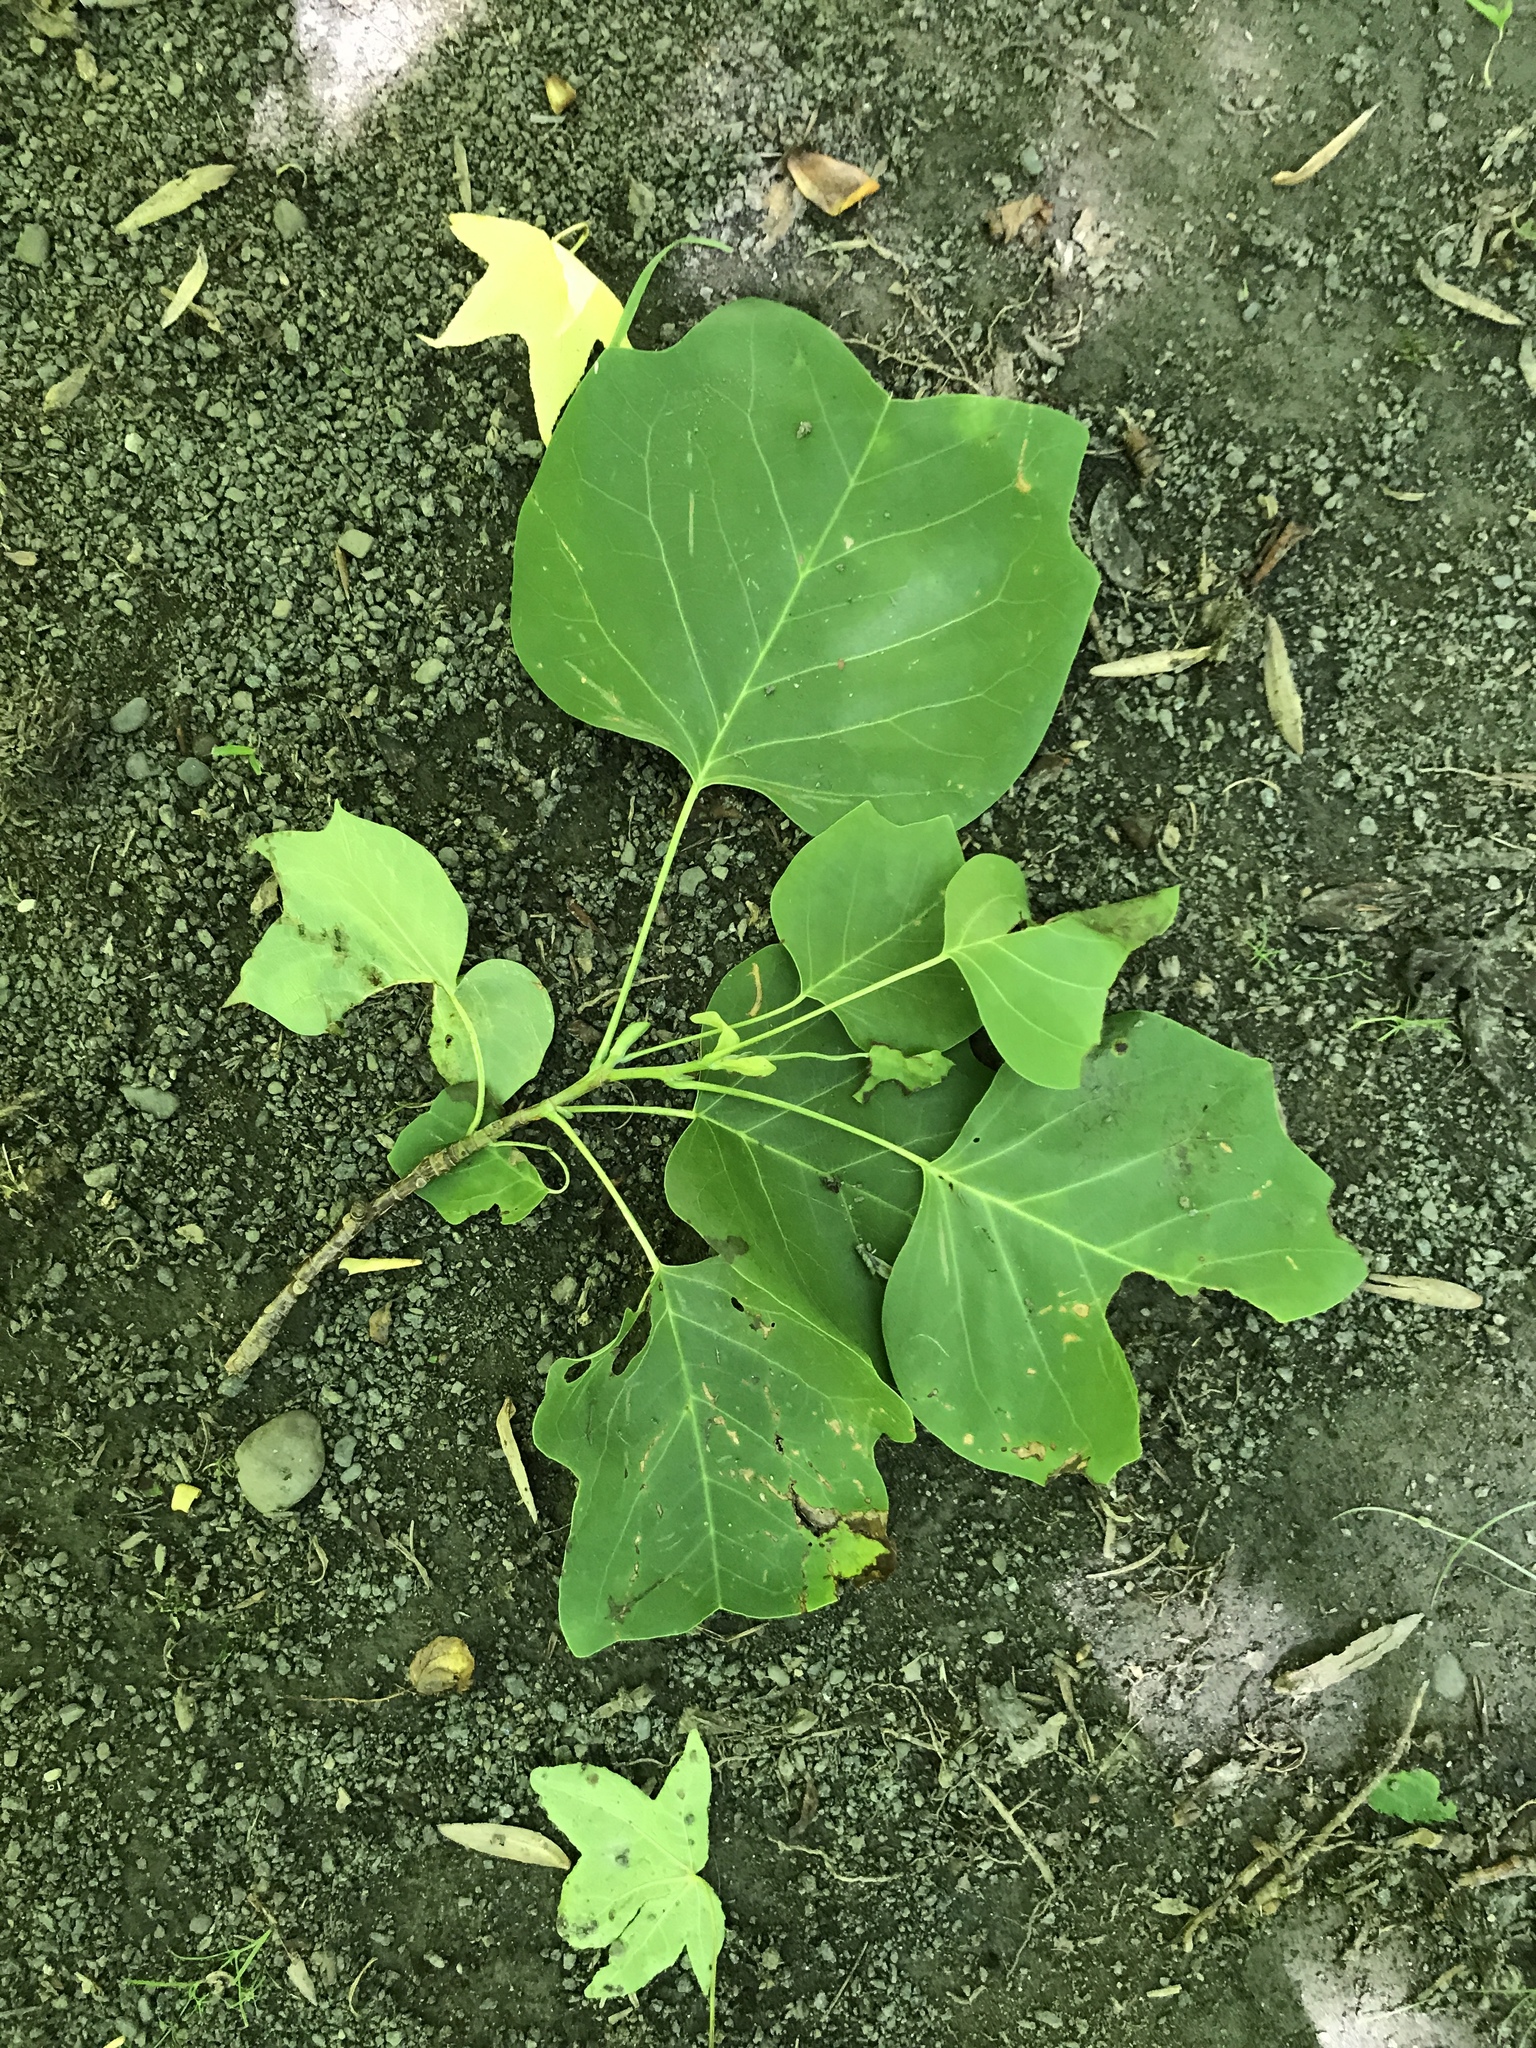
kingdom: Plantae
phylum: Tracheophyta
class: Magnoliopsida
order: Magnoliales
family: Magnoliaceae
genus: Liriodendron
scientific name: Liriodendron tulipifera
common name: Tulip tree
